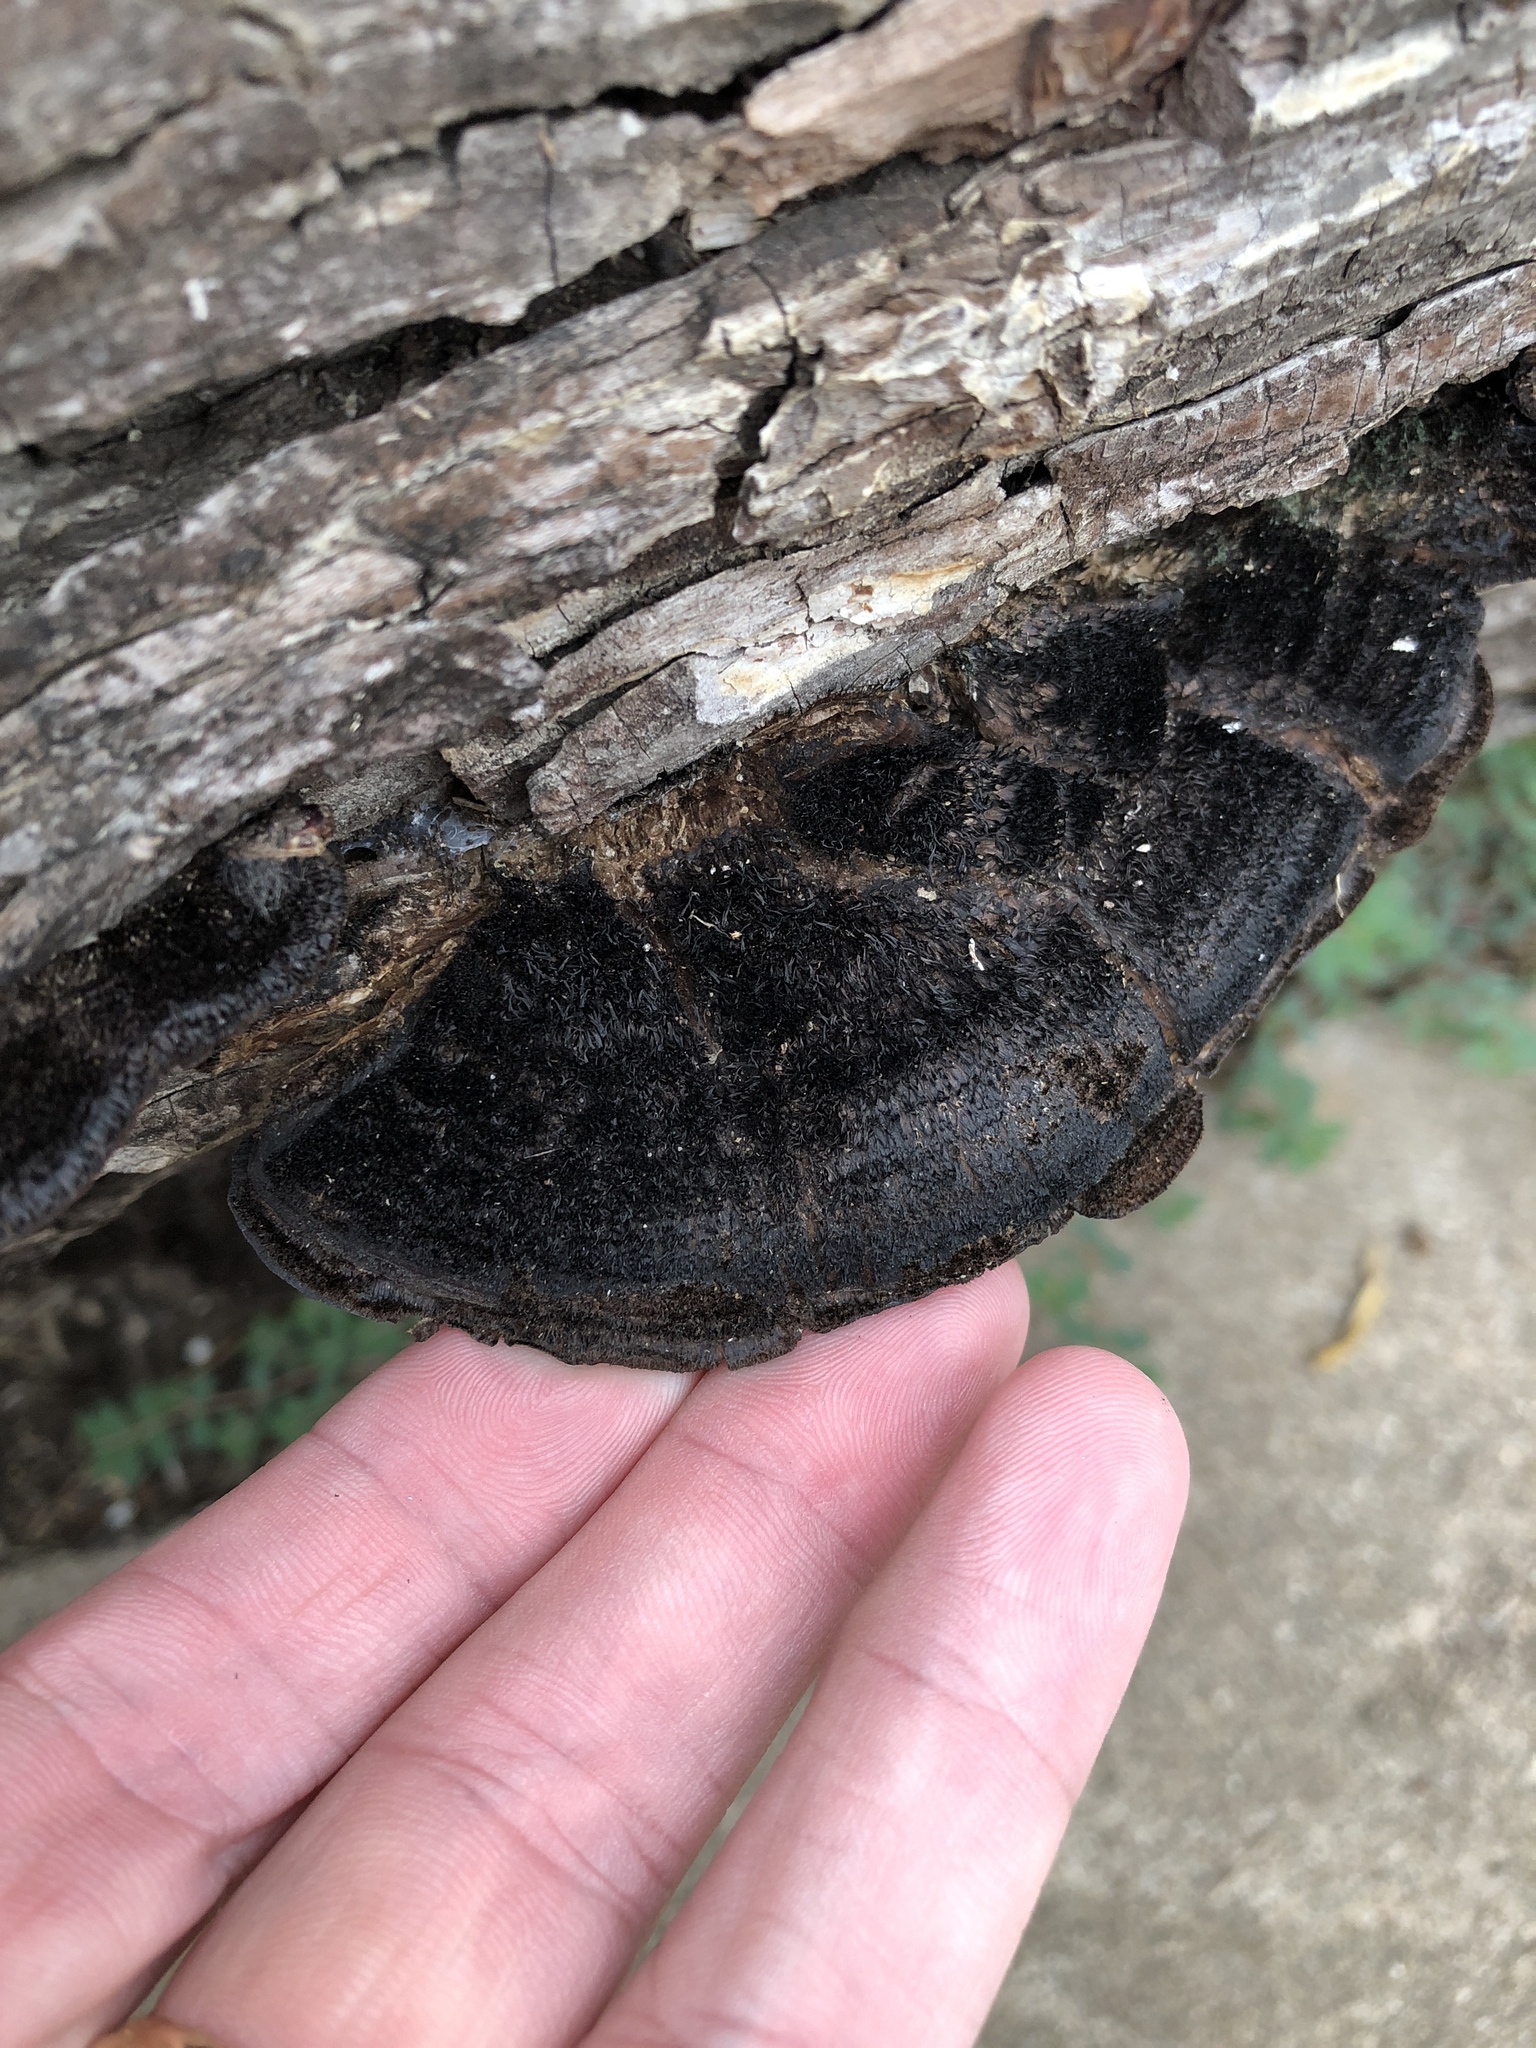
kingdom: Fungi
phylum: Basidiomycota
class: Agaricomycetes
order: Polyporales
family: Cerrenaceae
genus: Cerrena
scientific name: Cerrena hydnoides
